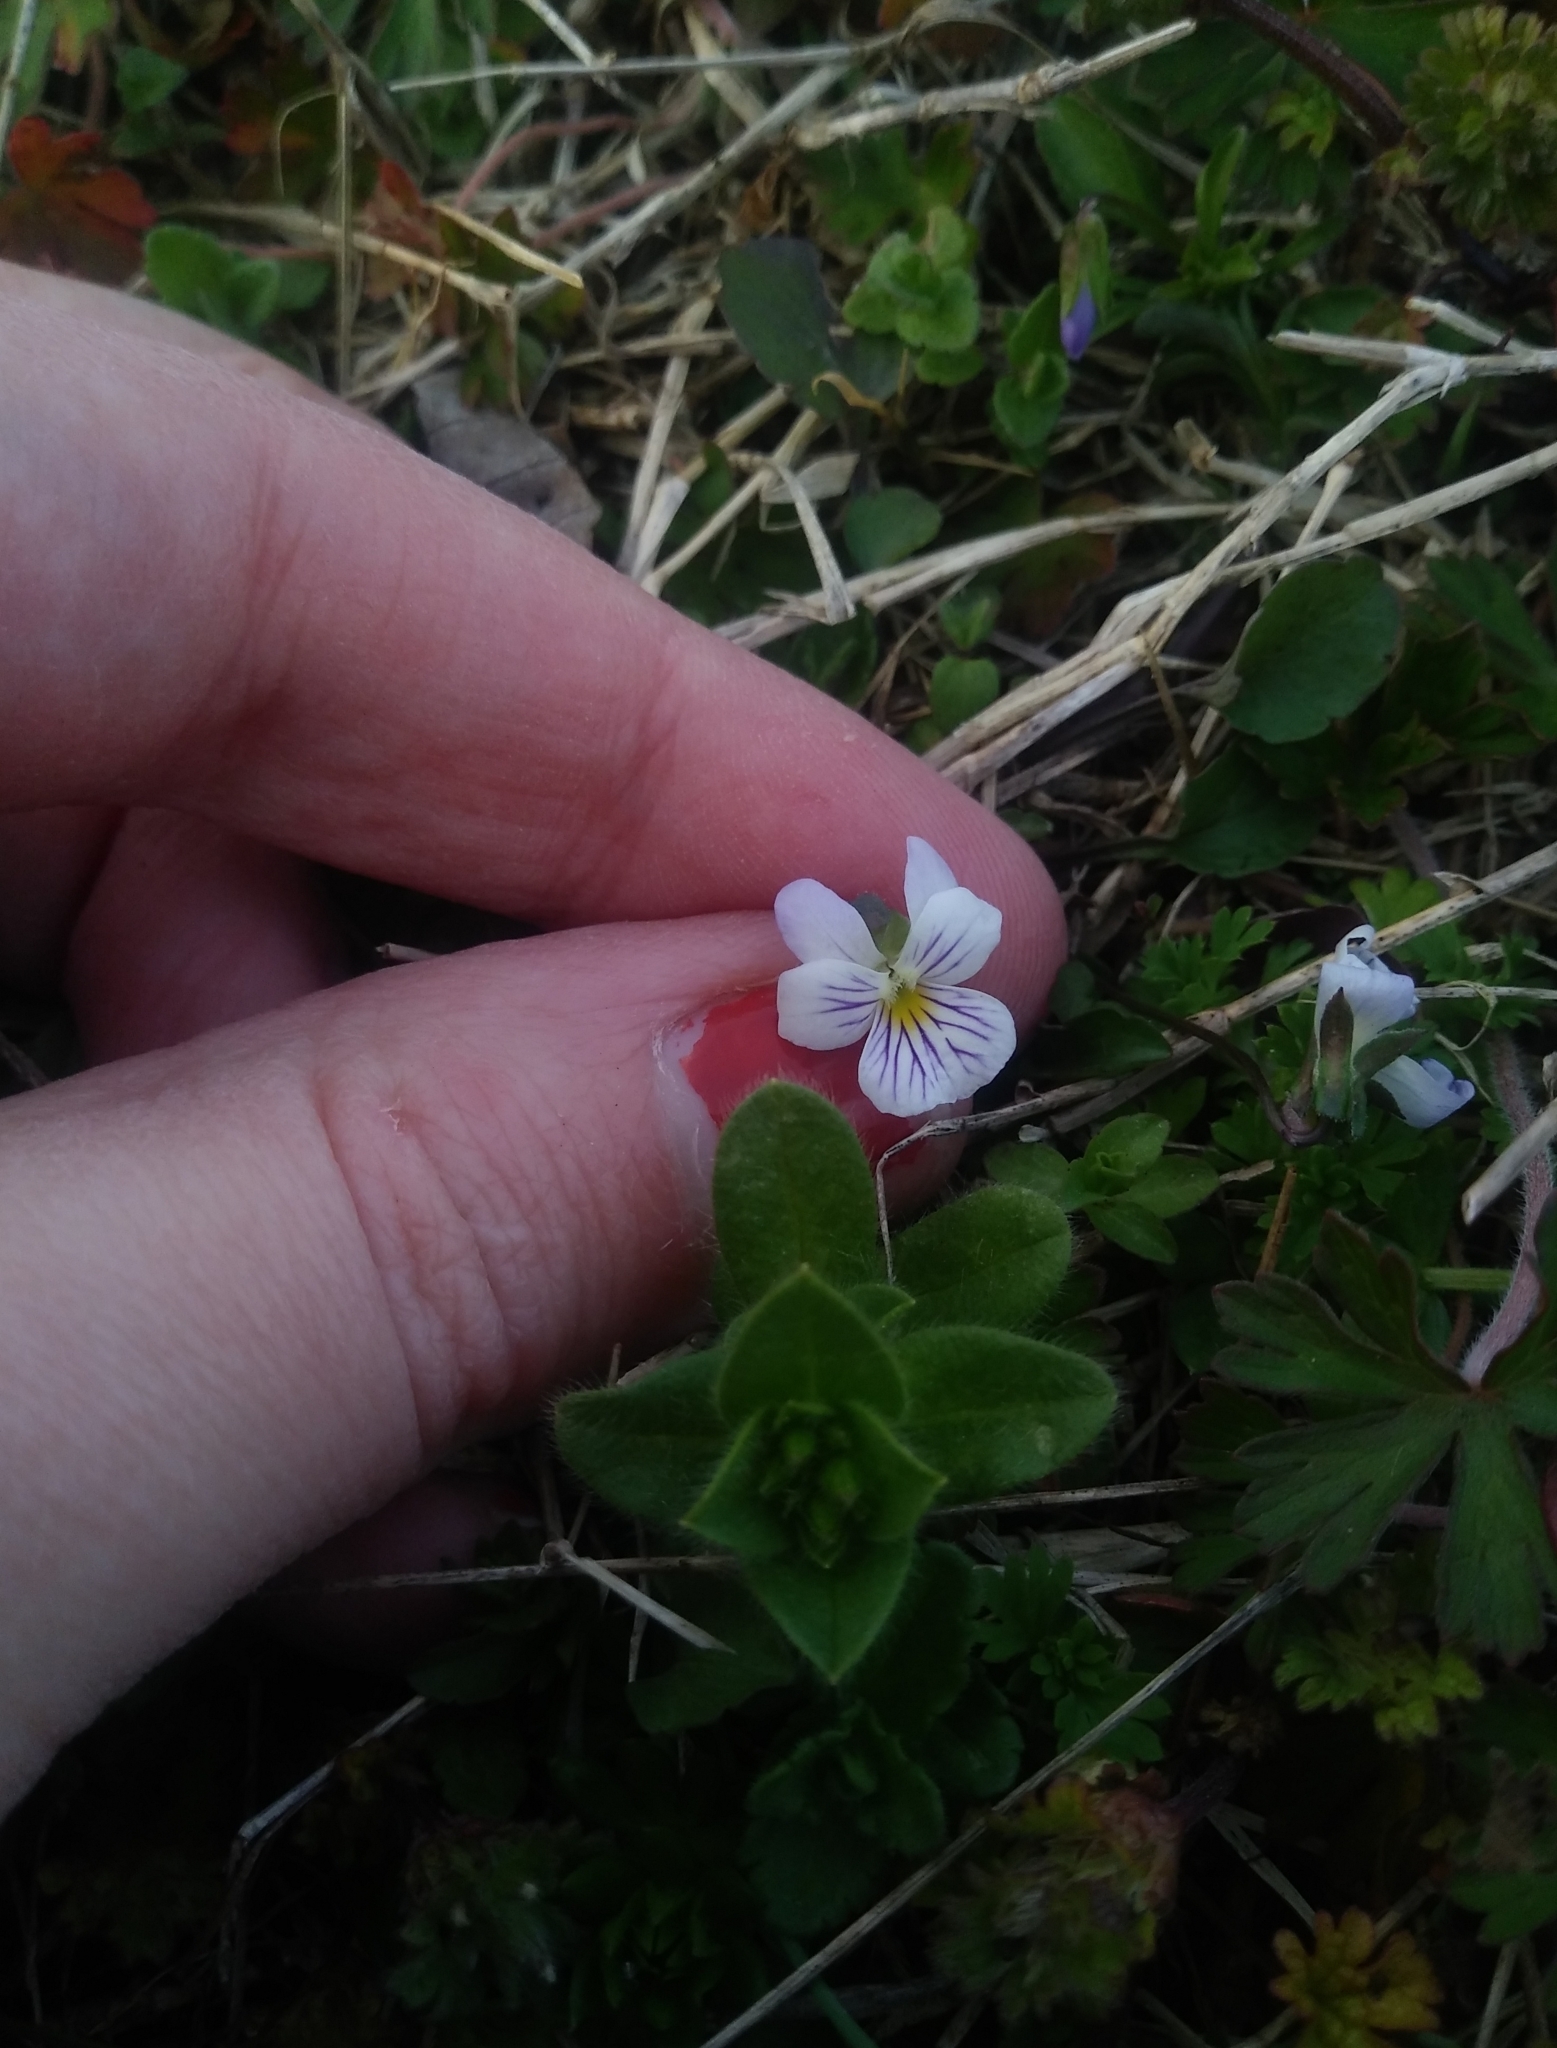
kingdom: Plantae
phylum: Tracheophyta
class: Magnoliopsida
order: Malpighiales
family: Violaceae
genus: Viola
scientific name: Viola rafinesquei
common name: American field pansy
